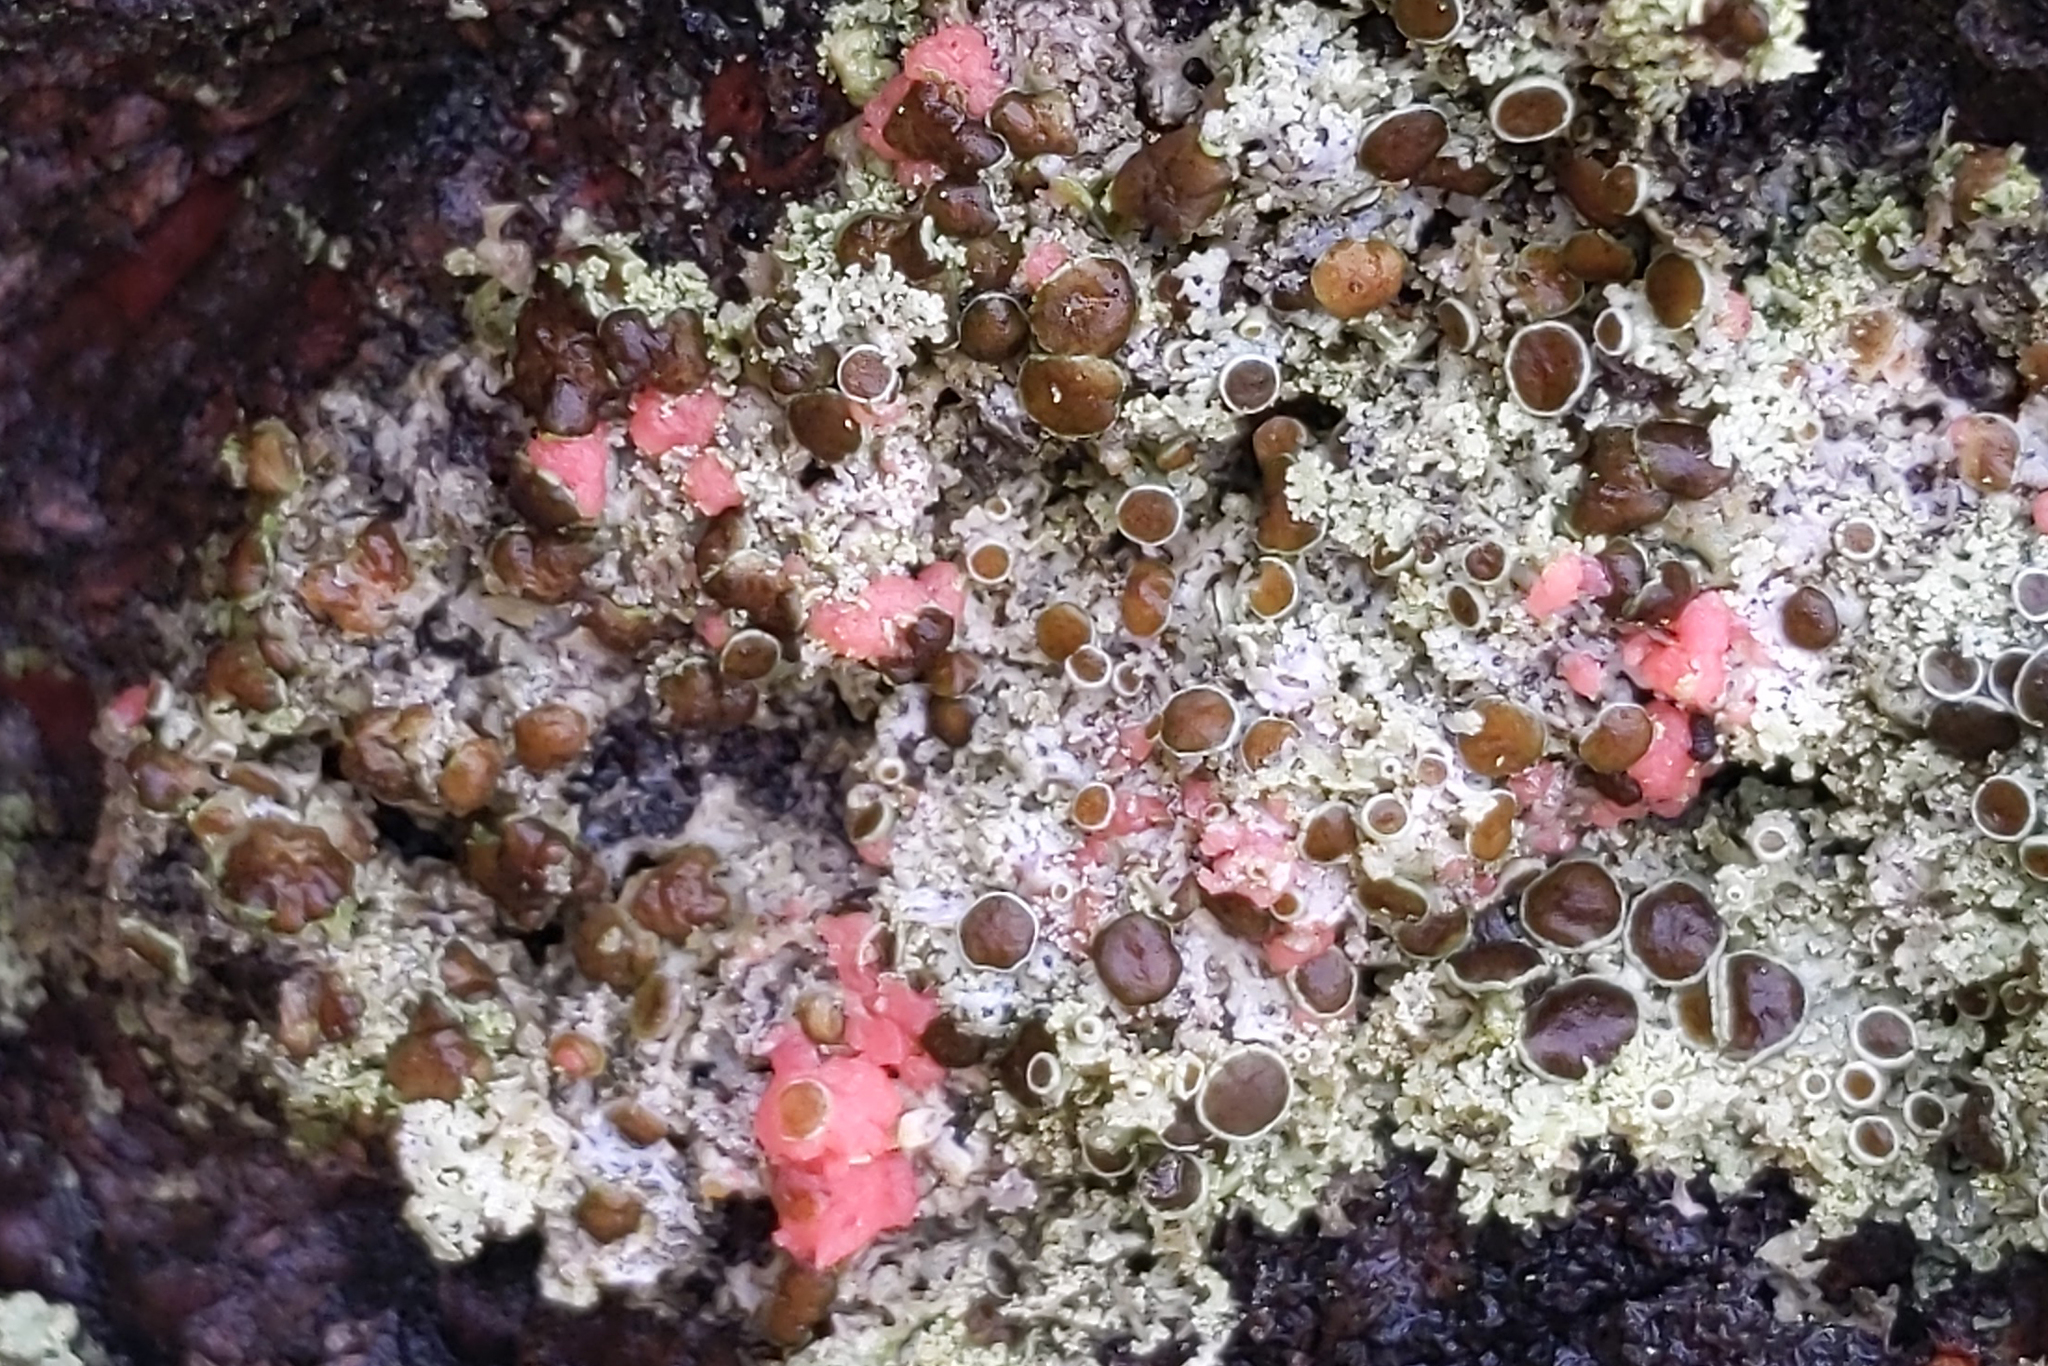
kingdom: Fungi
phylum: Ascomycota
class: Sordariomycetes
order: Hypocreales
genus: Illosporiopsis
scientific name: Illosporiopsis christiansenii
